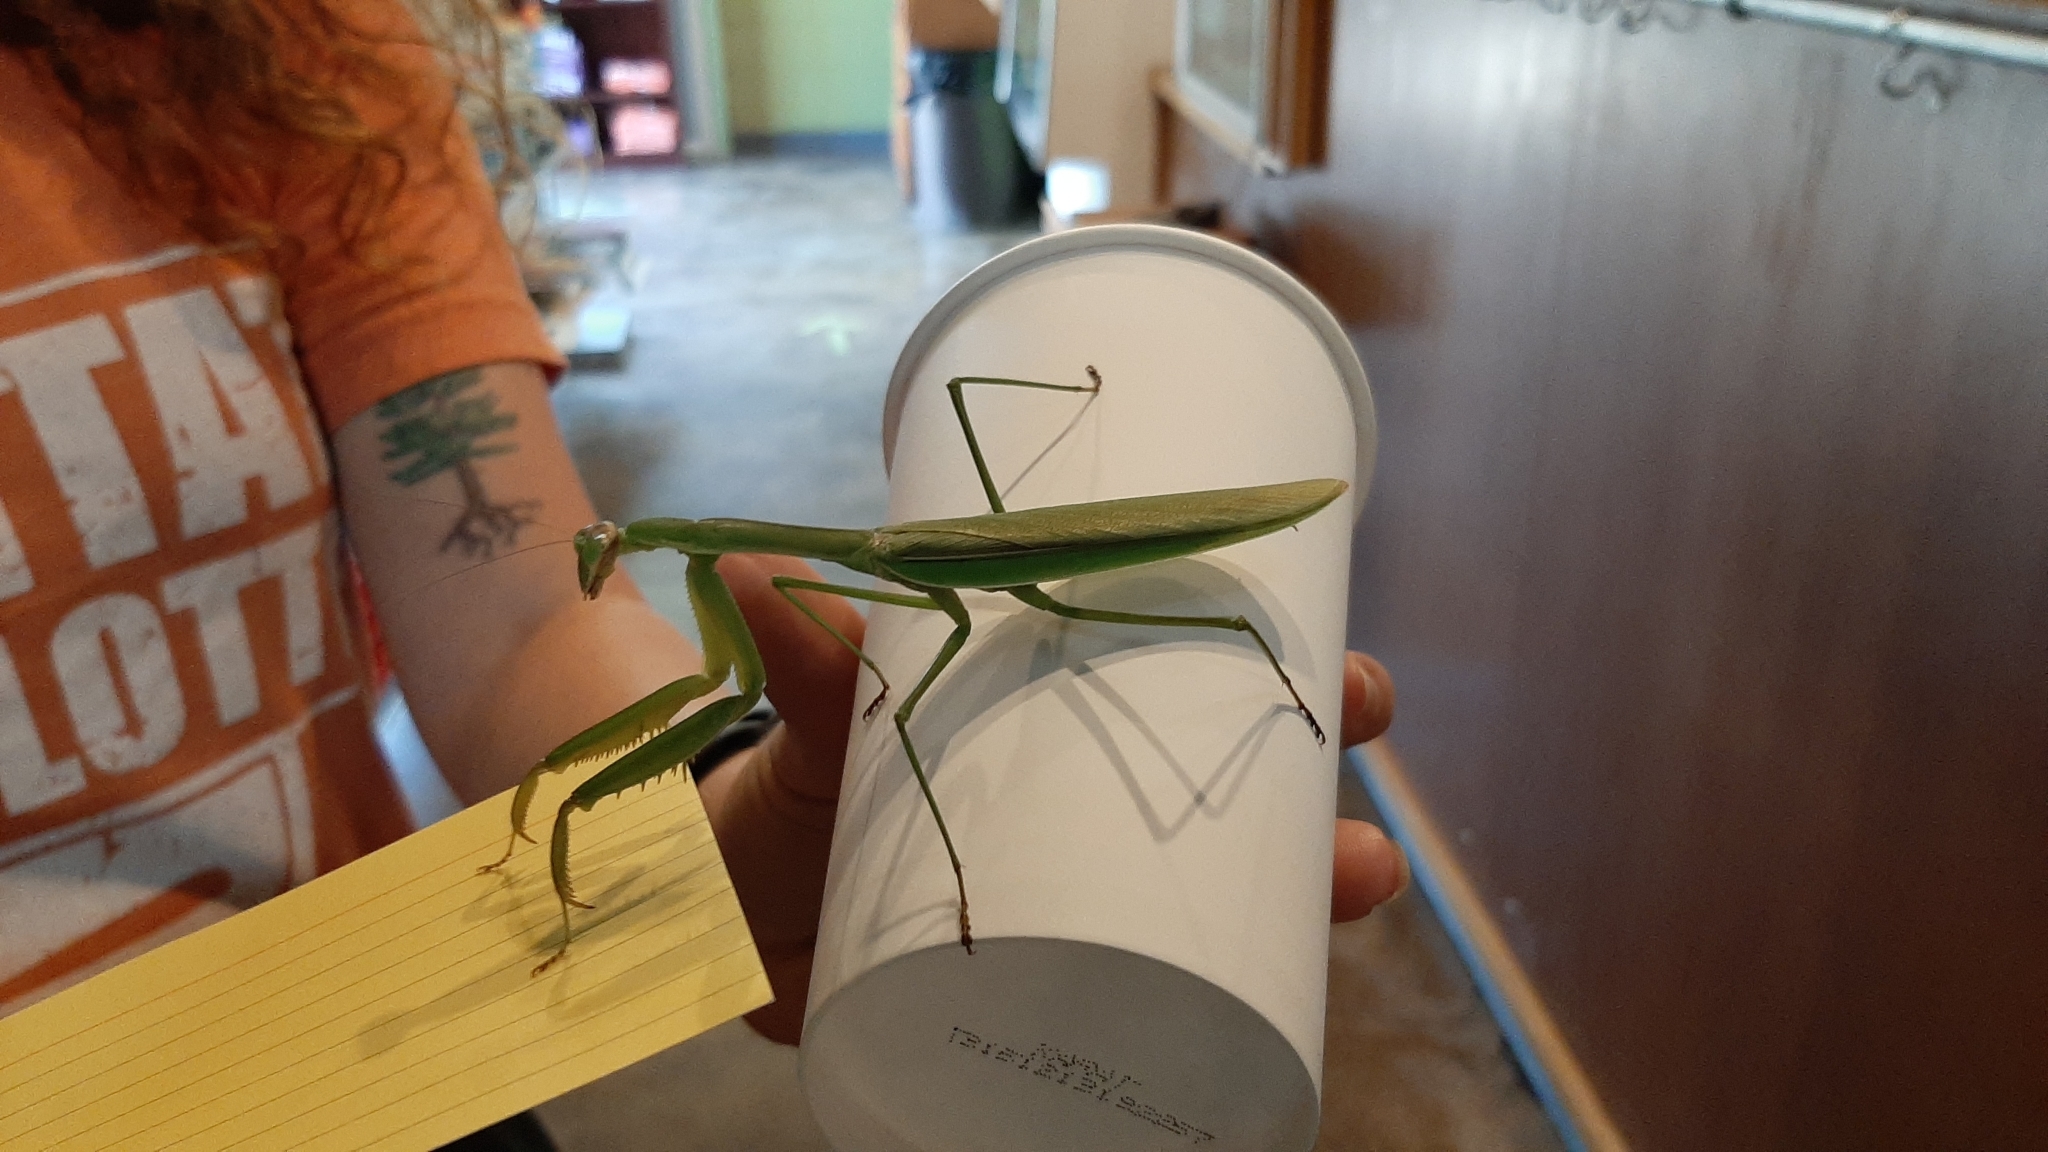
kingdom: Animalia
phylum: Arthropoda
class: Insecta
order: Mantodea
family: Mantidae
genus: Tenodera
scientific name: Tenodera sinensis
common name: Chinese mantis
